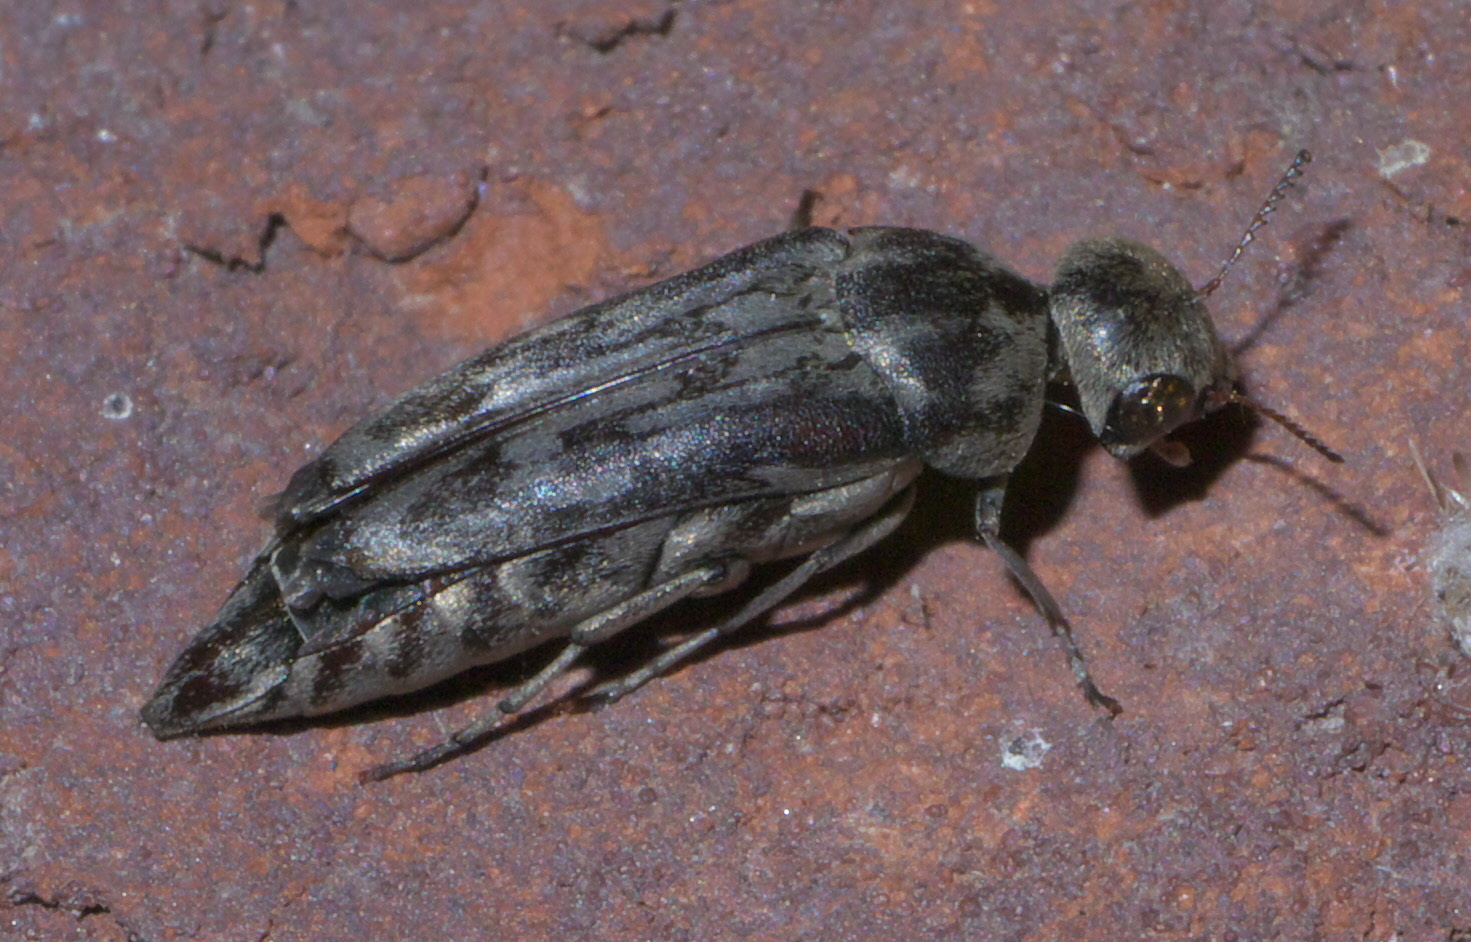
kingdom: Animalia
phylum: Arthropoda
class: Insecta
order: Coleoptera
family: Mordellidae
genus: Yakuhananomia
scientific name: Yakuhananomia bidentata
